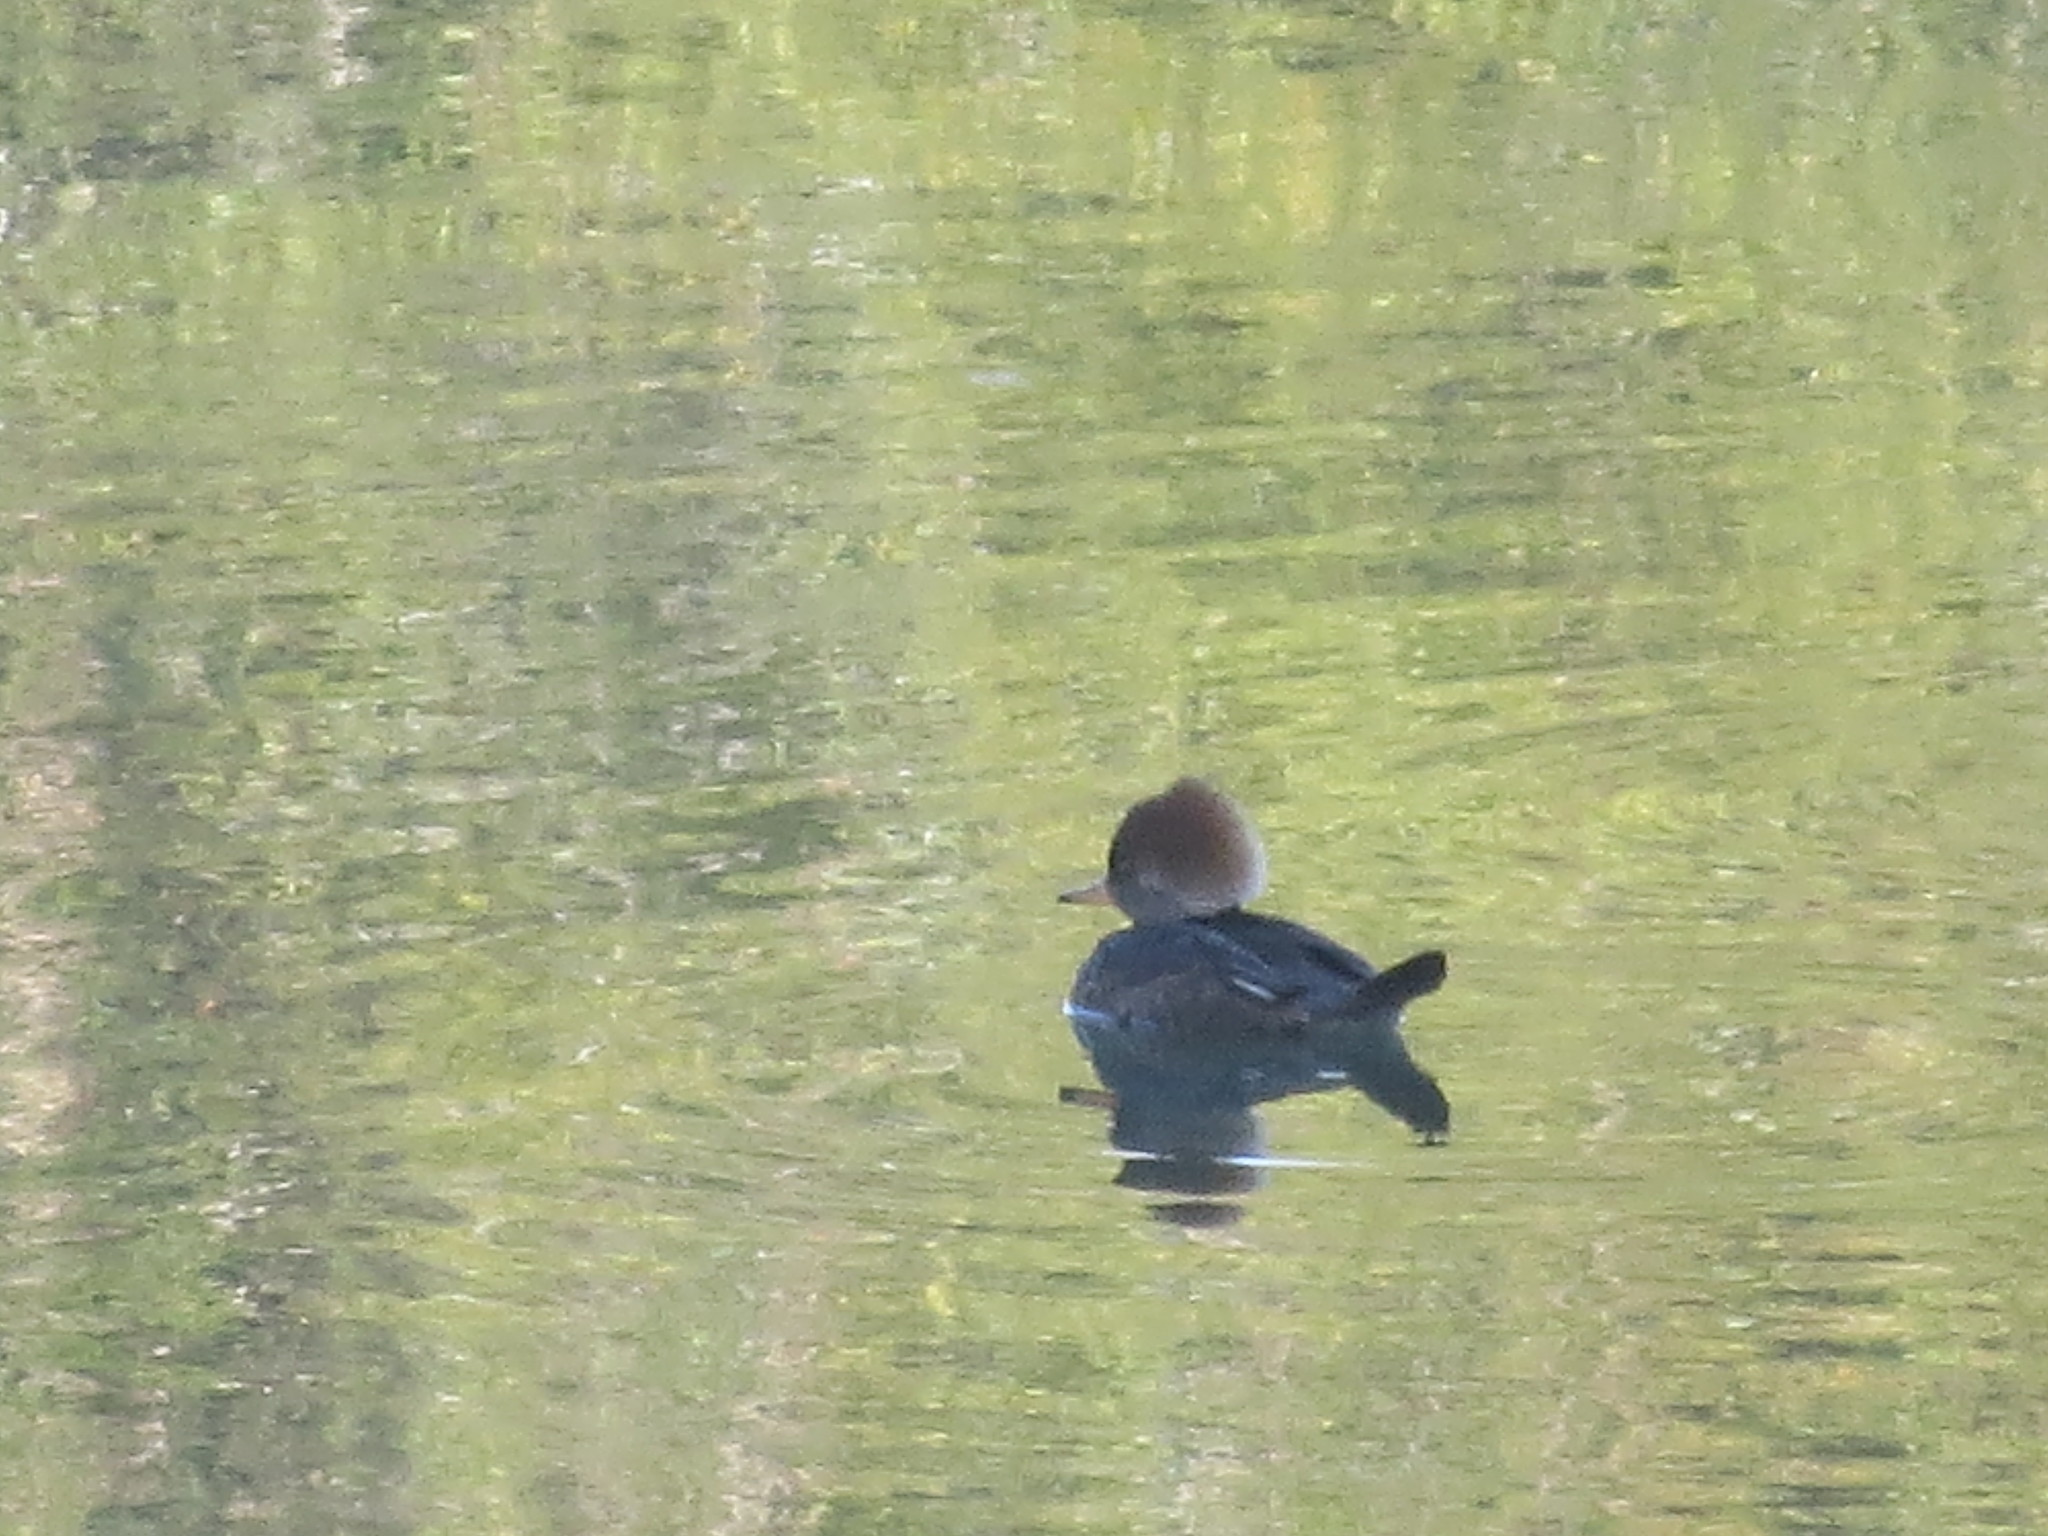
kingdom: Animalia
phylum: Chordata
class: Aves
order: Anseriformes
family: Anatidae
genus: Lophodytes
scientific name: Lophodytes cucullatus
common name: Hooded merganser
